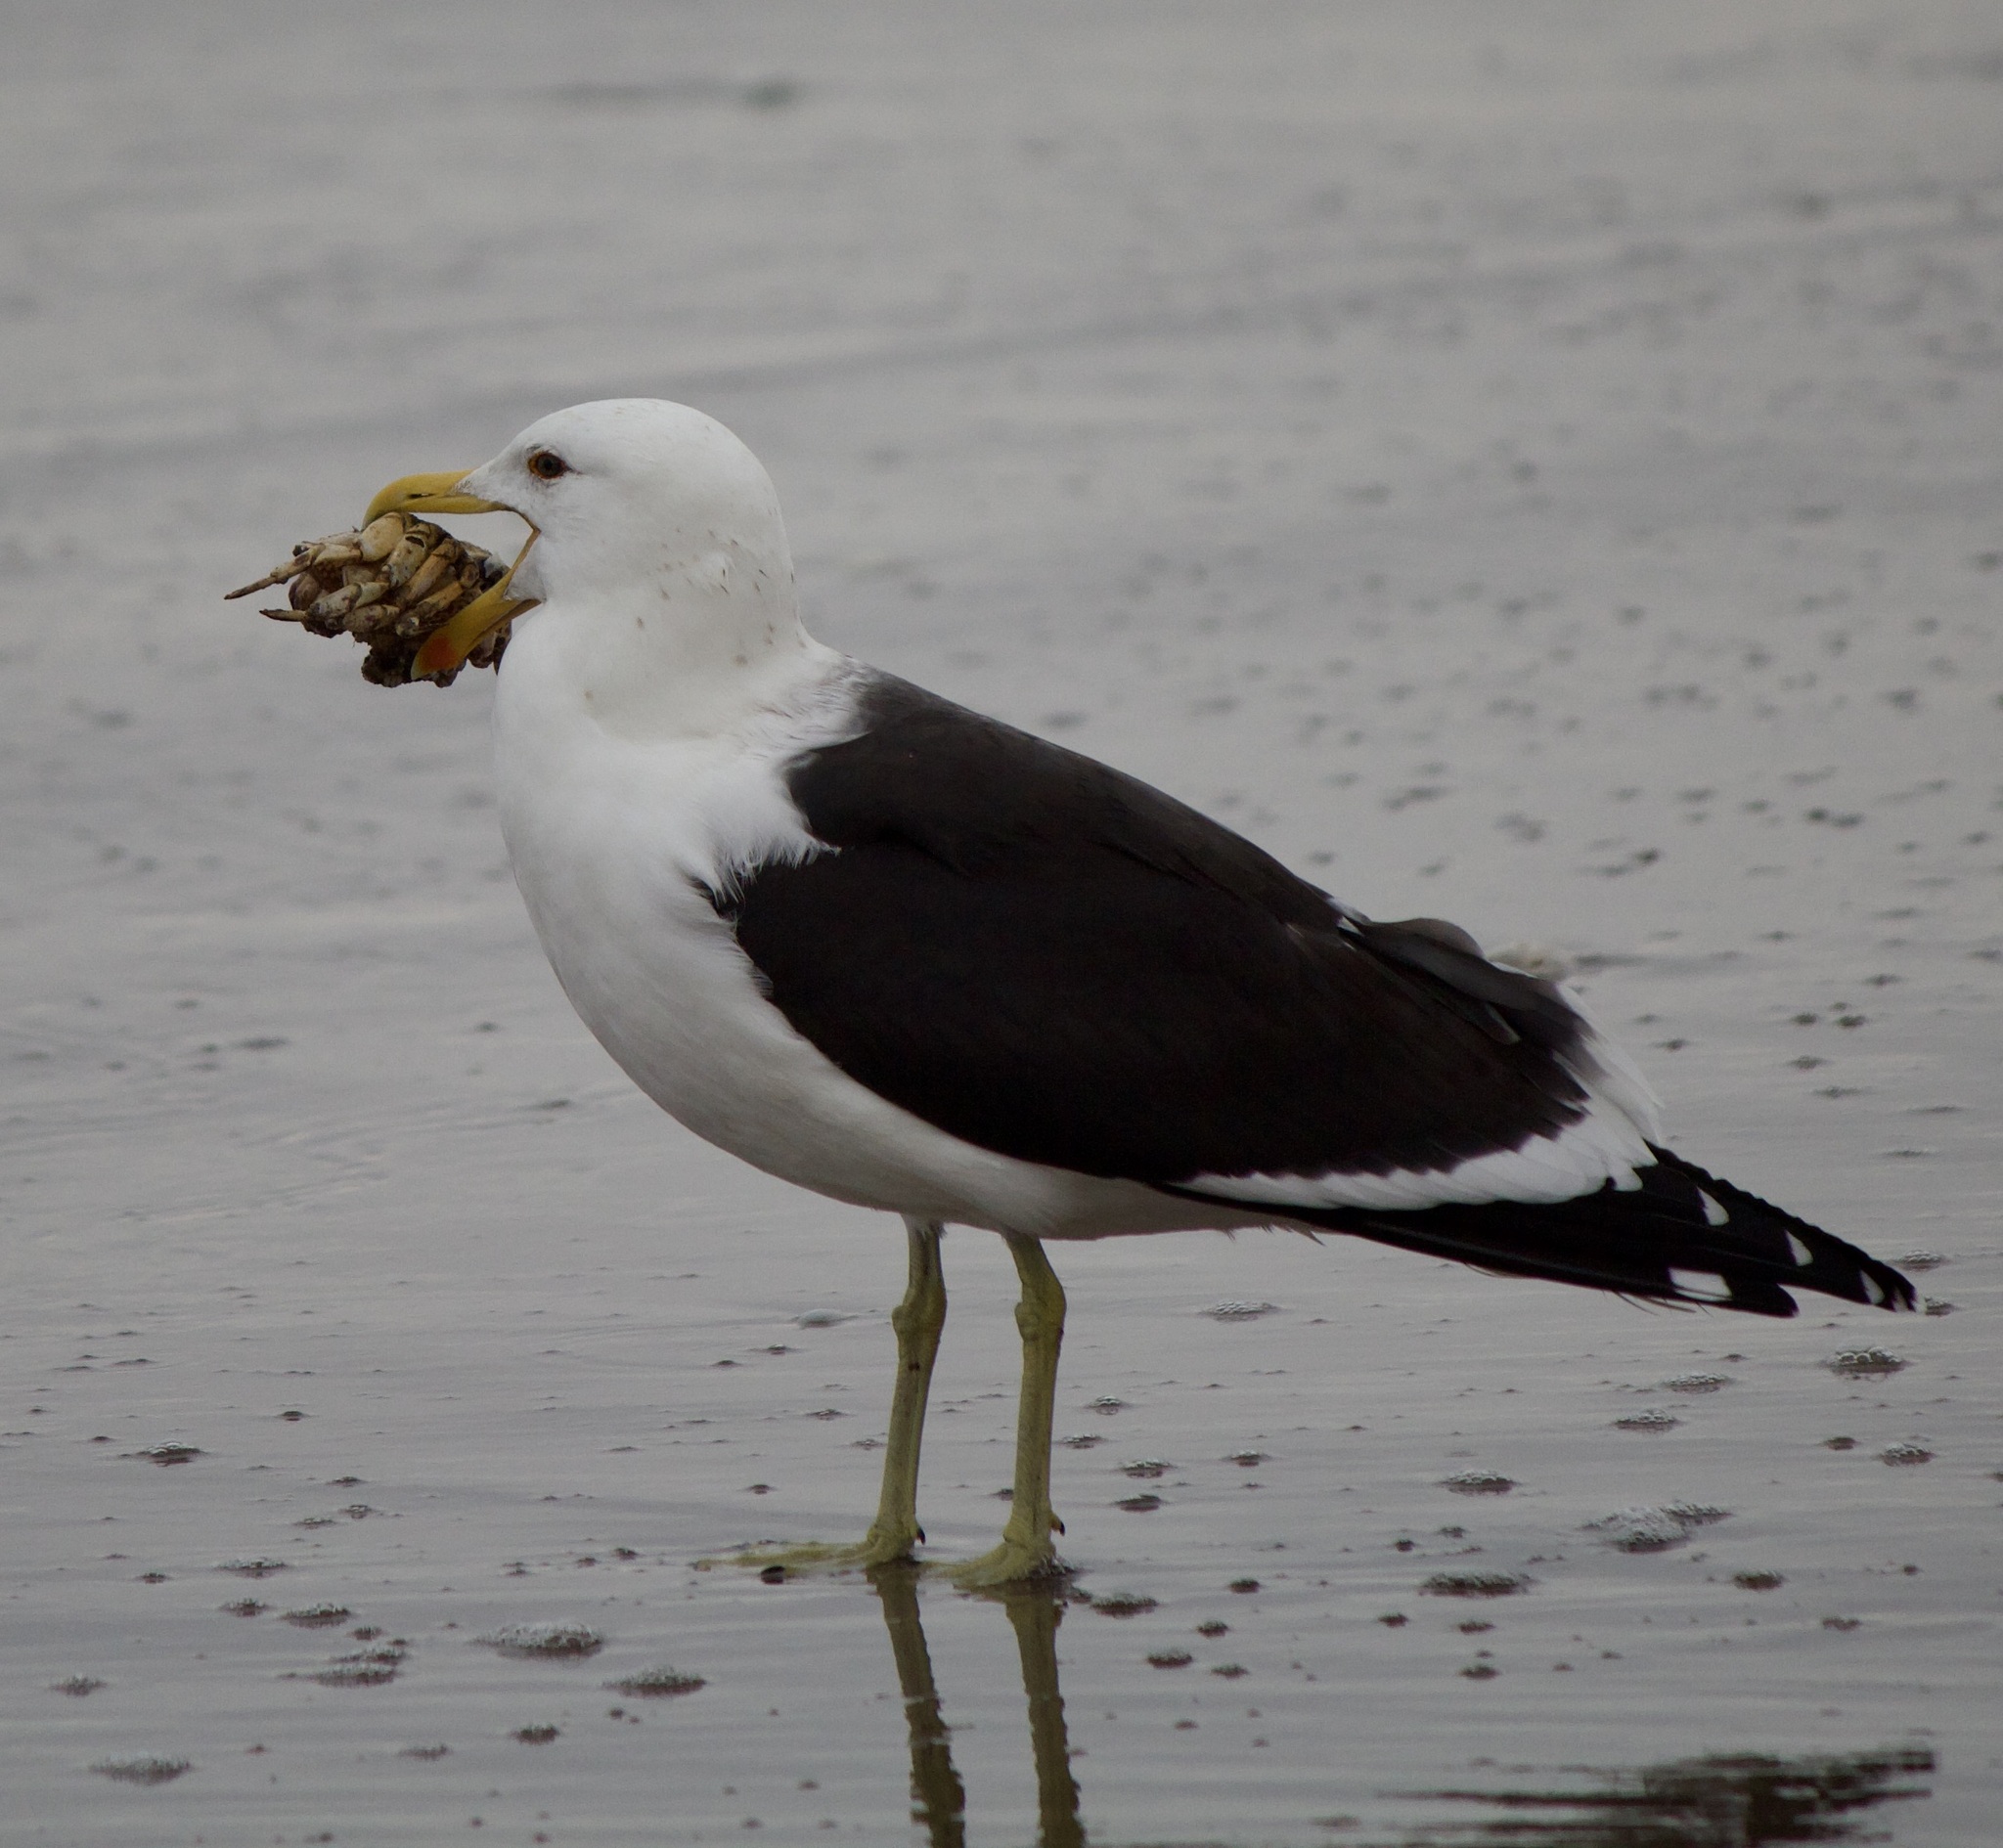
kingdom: Animalia
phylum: Chordata
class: Aves
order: Charadriiformes
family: Laridae
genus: Larus
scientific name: Larus dominicanus
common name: Kelp gull
